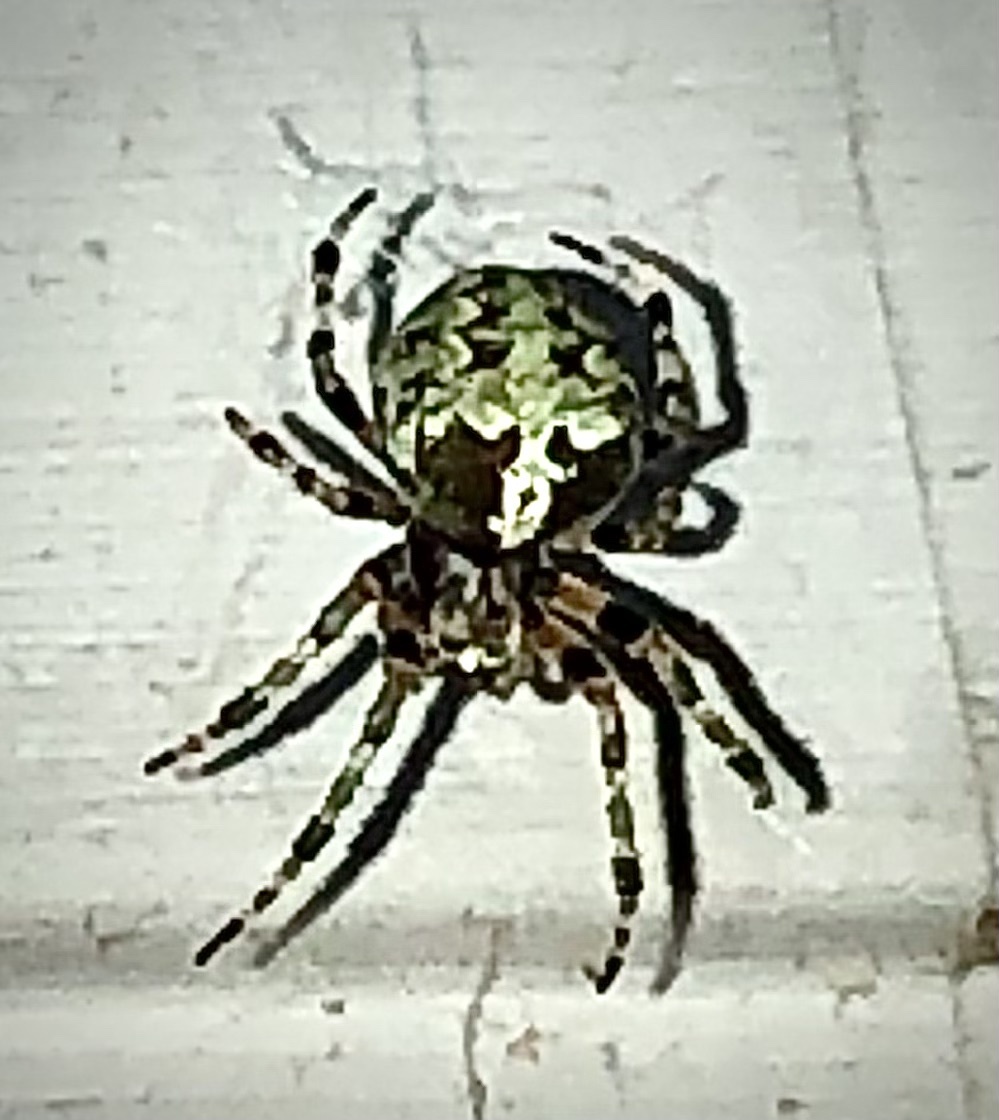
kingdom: Animalia
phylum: Arthropoda
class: Arachnida
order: Araneae
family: Araneidae
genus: Araneus
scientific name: Araneus bicentenarius
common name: Giant lichen orbweaver
